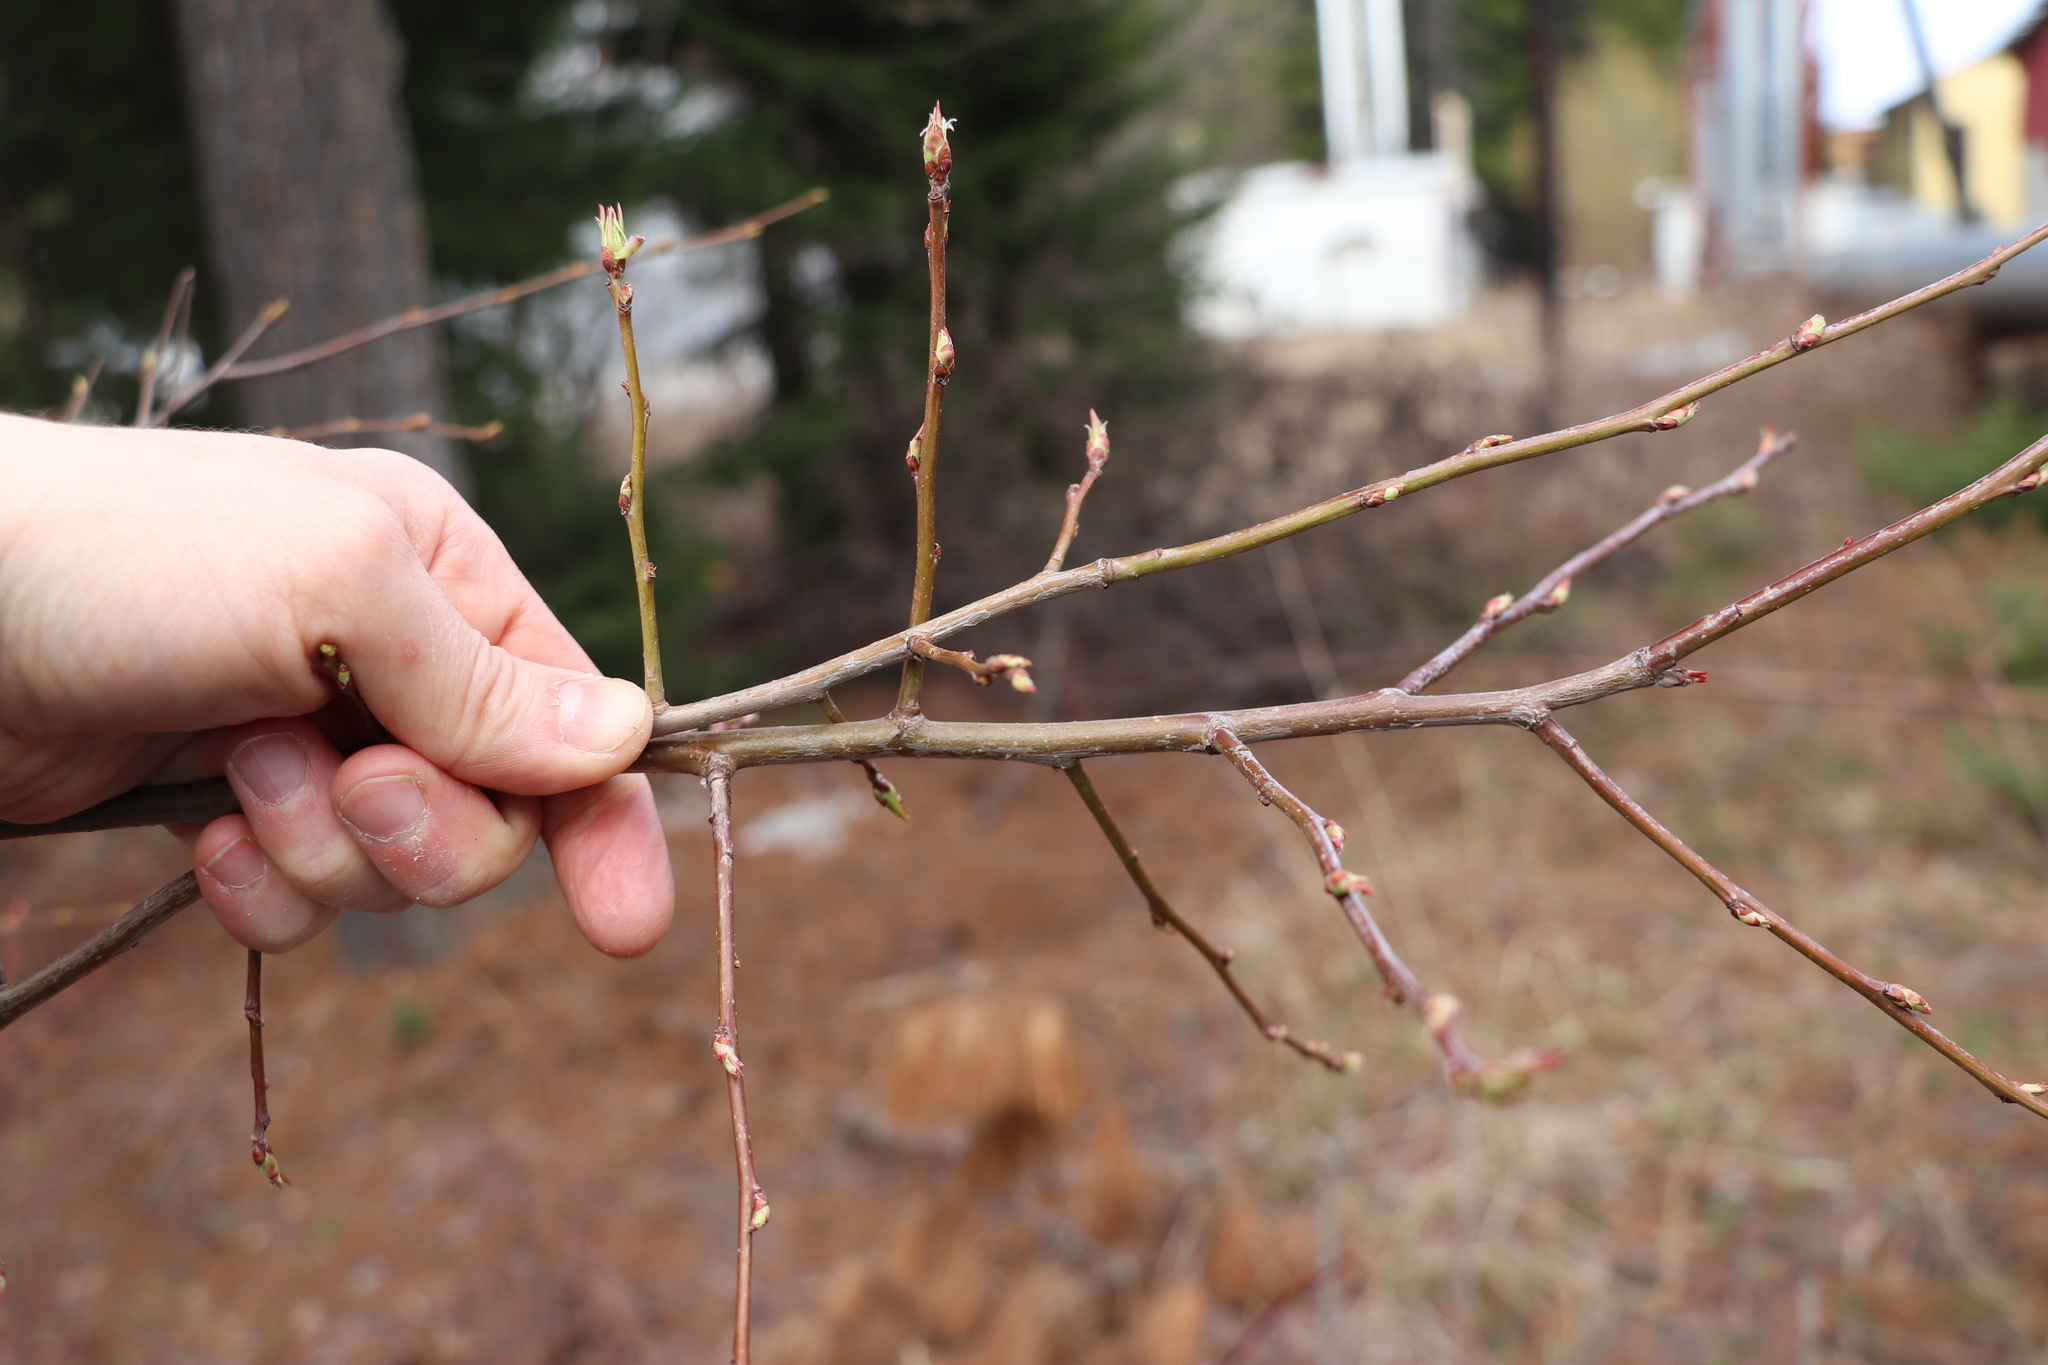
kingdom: Plantae
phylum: Tracheophyta
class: Magnoliopsida
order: Rosales
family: Rosaceae
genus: Malus
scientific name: Malus baccata
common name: Siberian crab
